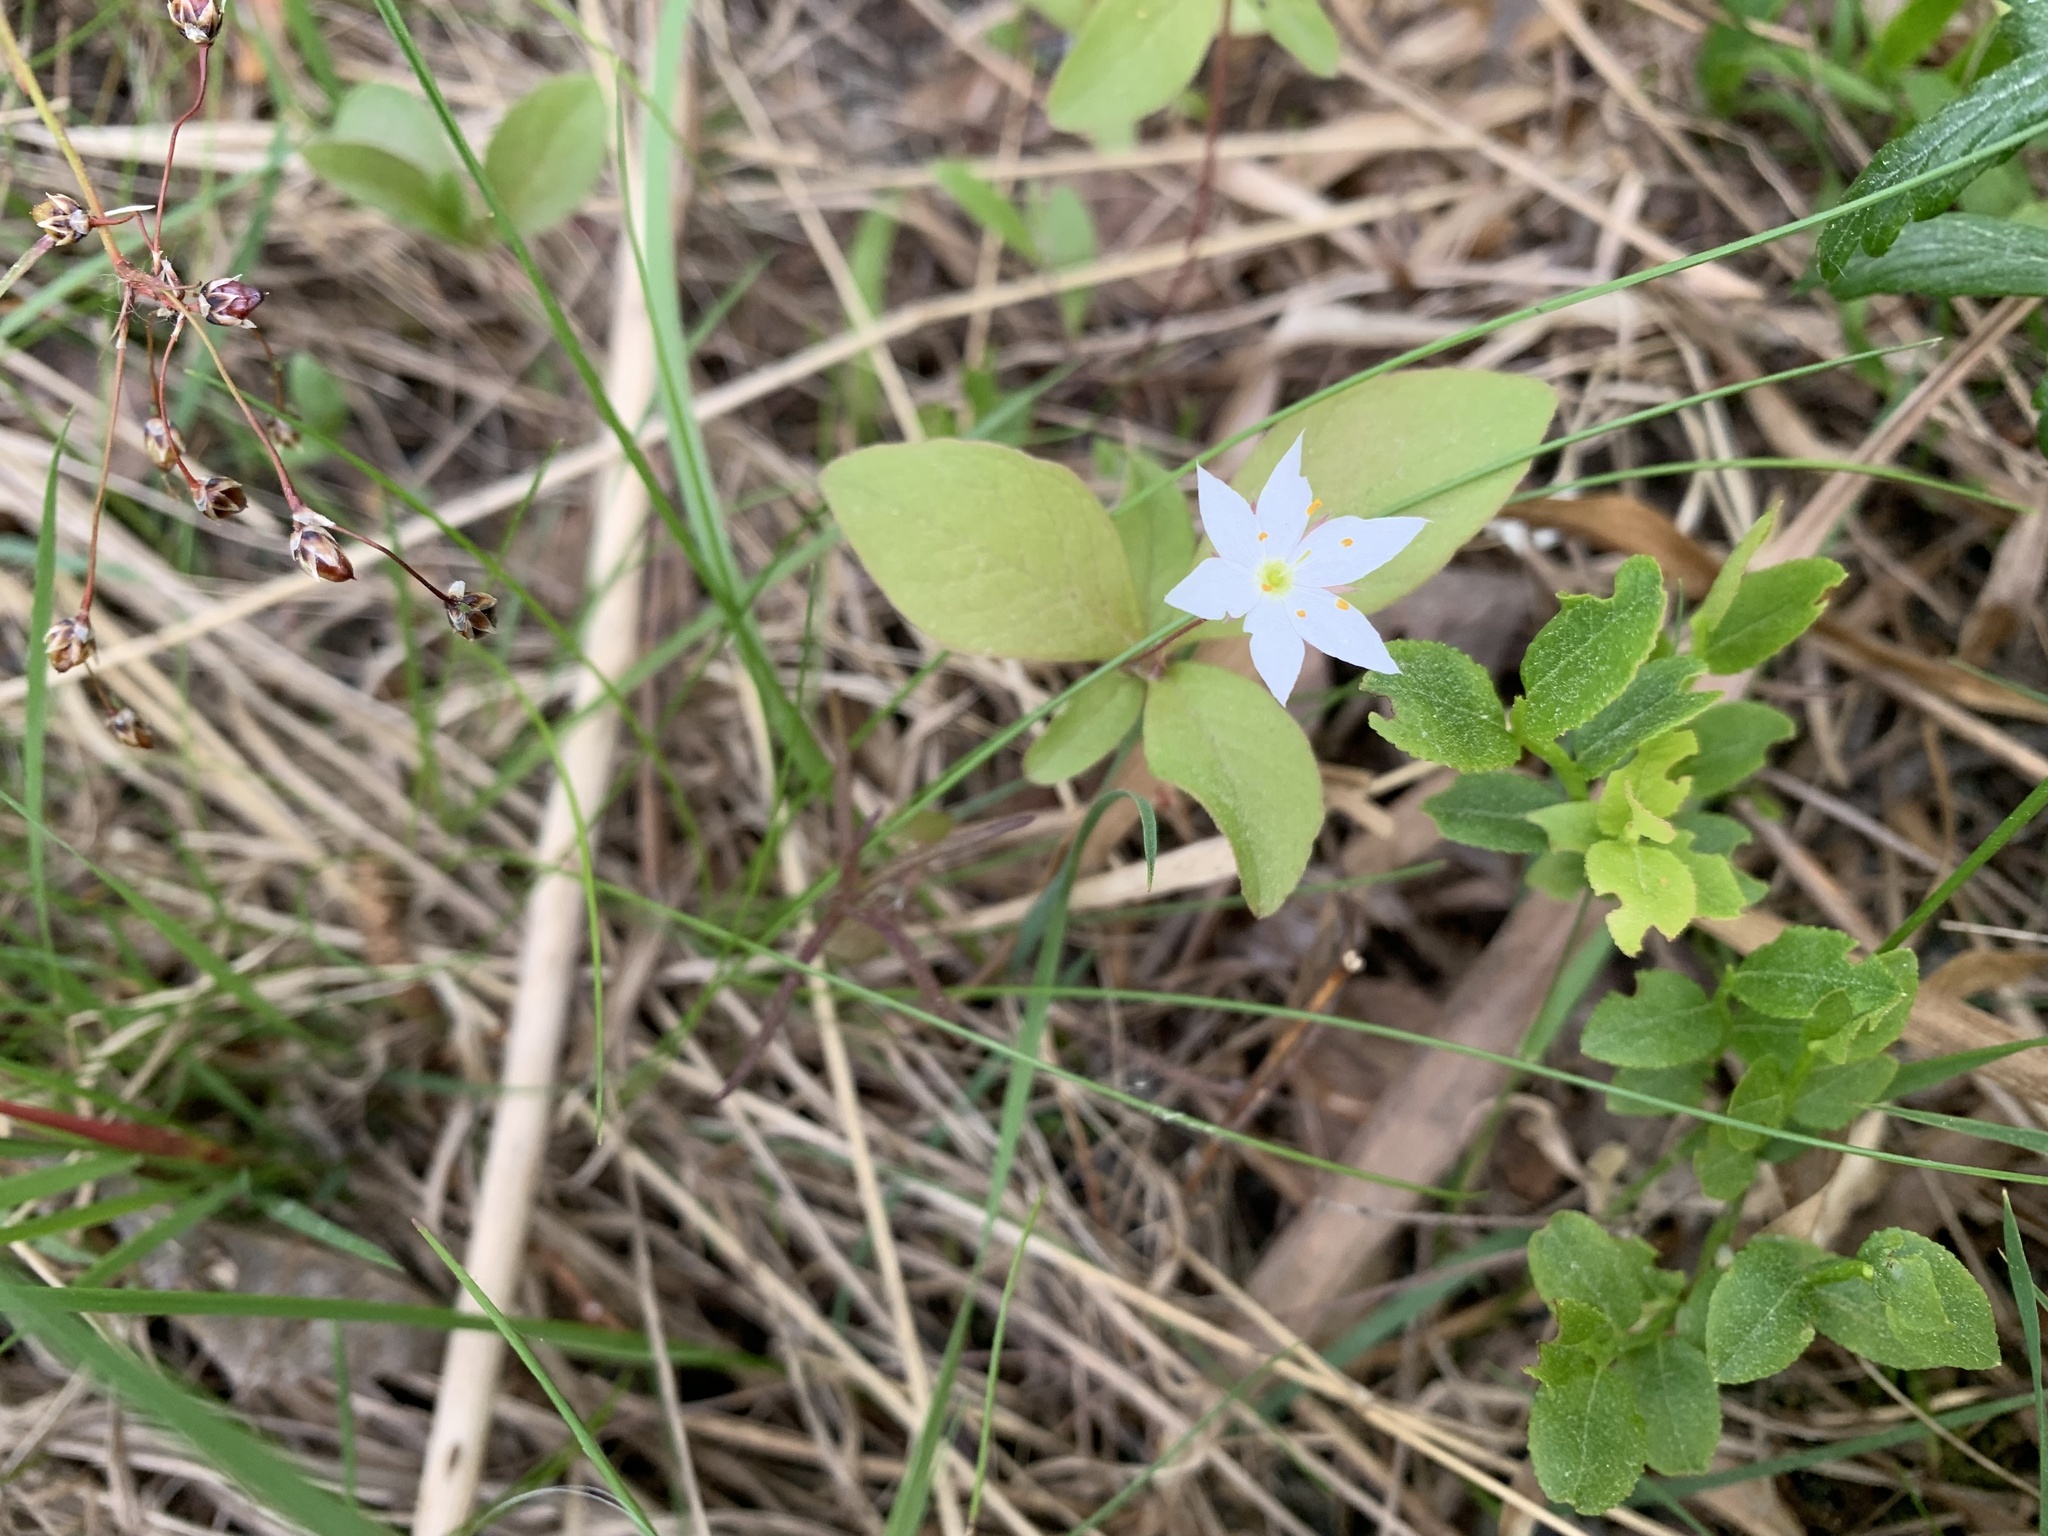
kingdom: Plantae
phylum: Tracheophyta
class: Magnoliopsida
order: Ericales
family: Primulaceae
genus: Lysimachia
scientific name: Lysimachia europaea
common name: Arctic starflower
